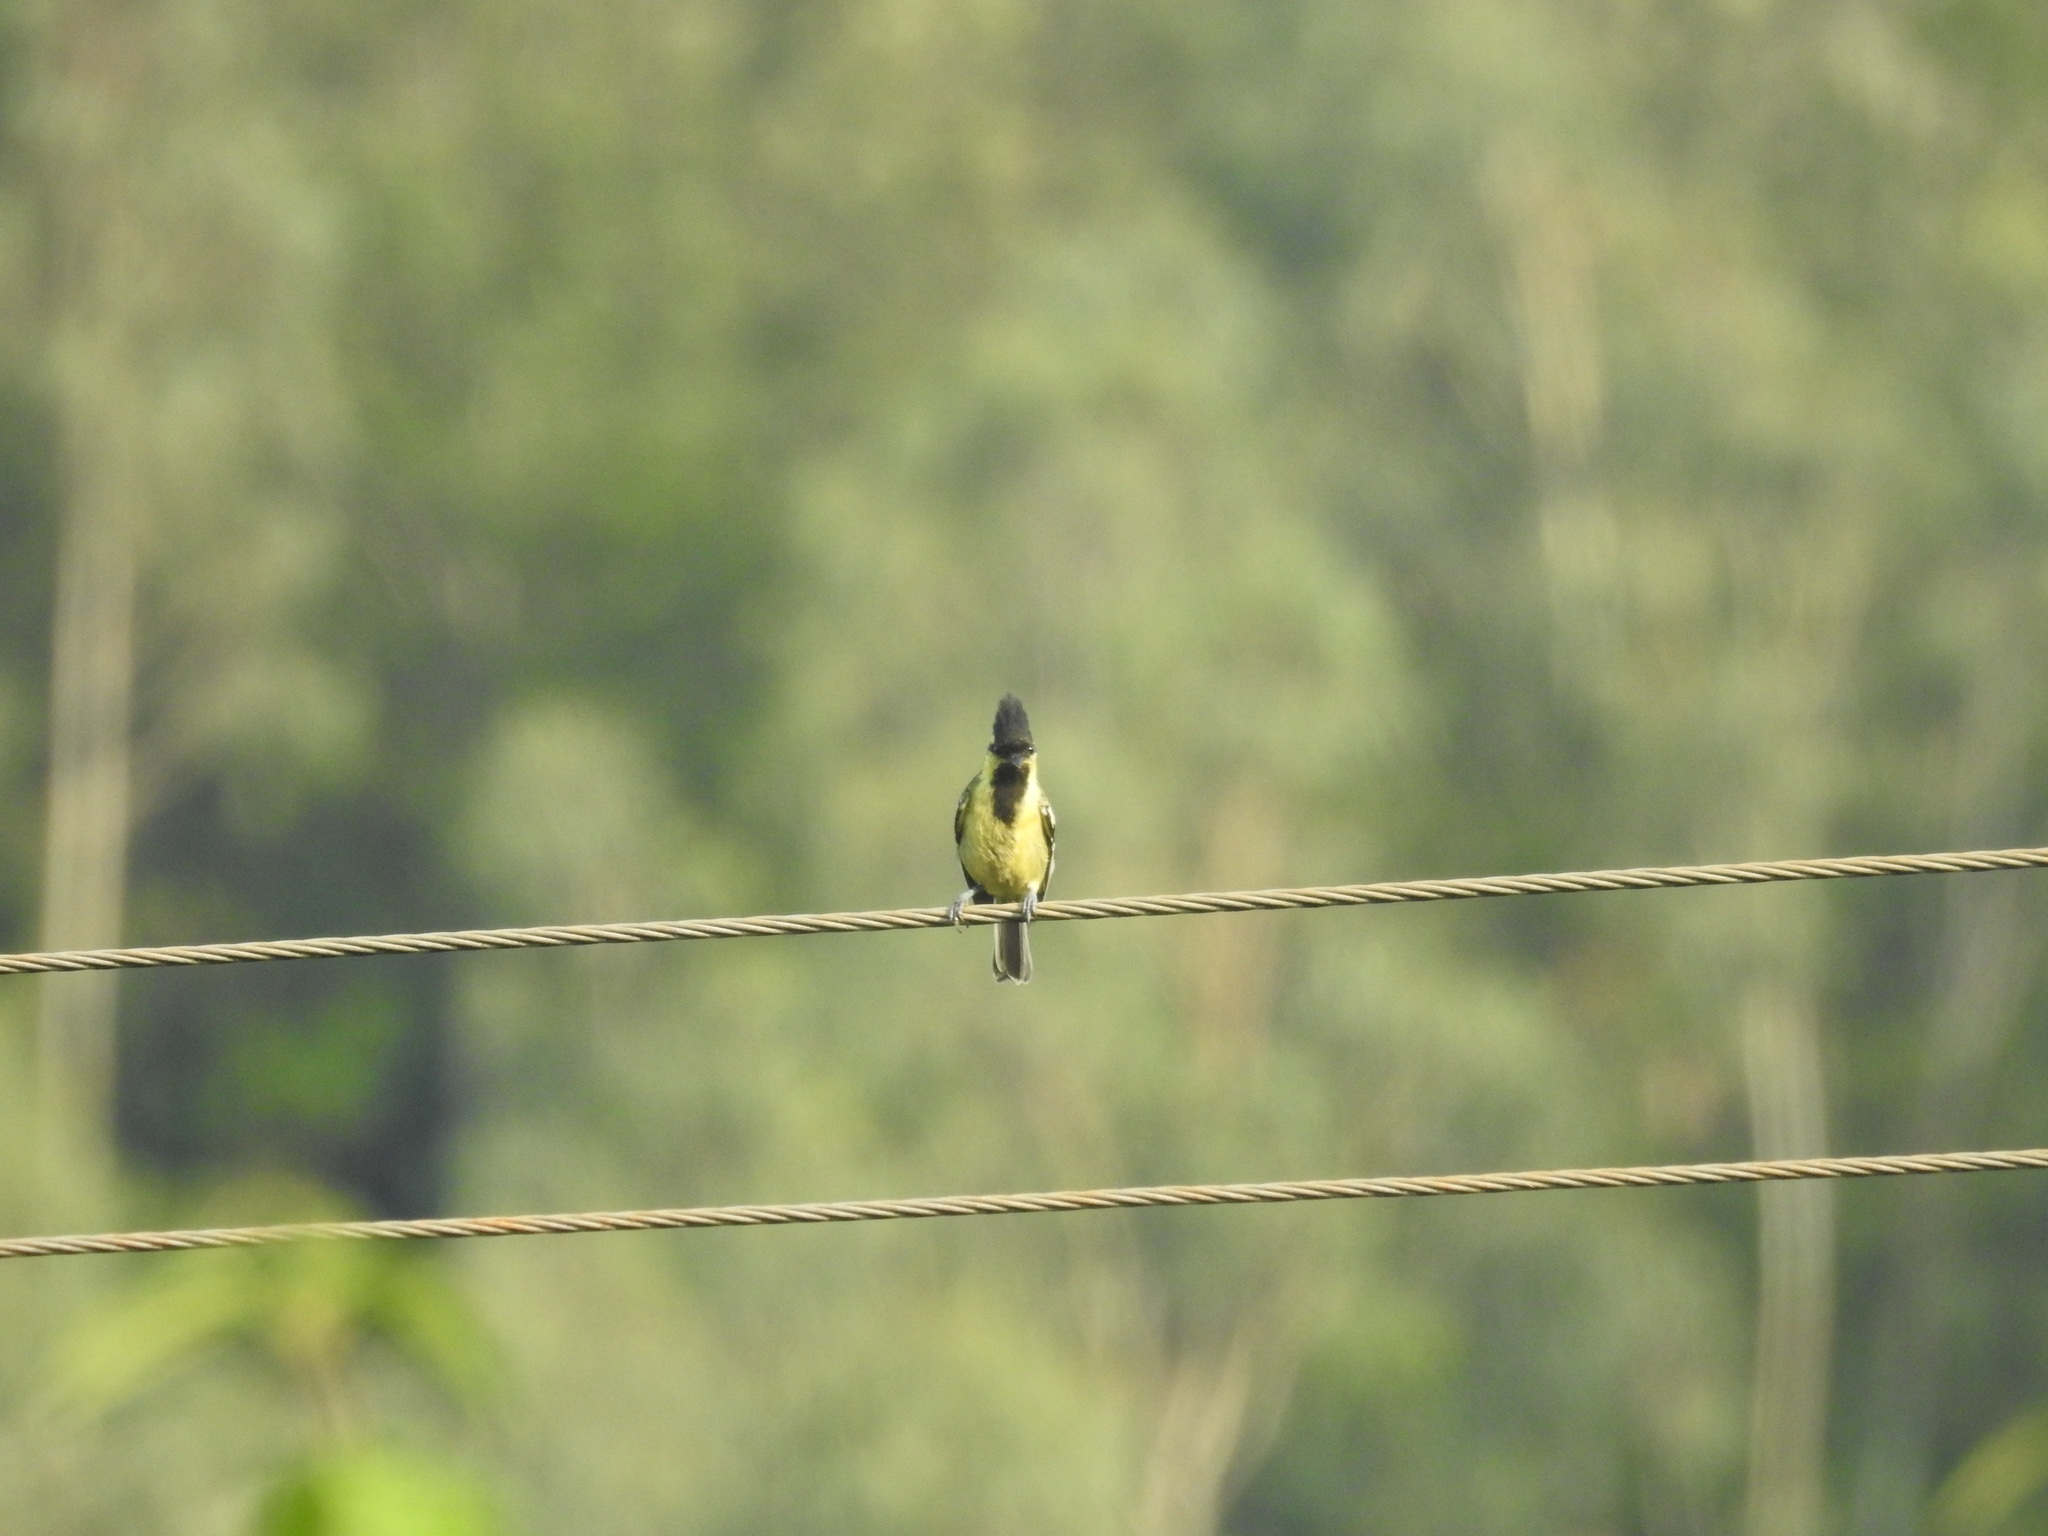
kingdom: Animalia
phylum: Chordata
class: Aves
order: Passeriformes
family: Paridae
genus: Parus
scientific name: Parus aplonotus
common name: Indian black-lored tit
